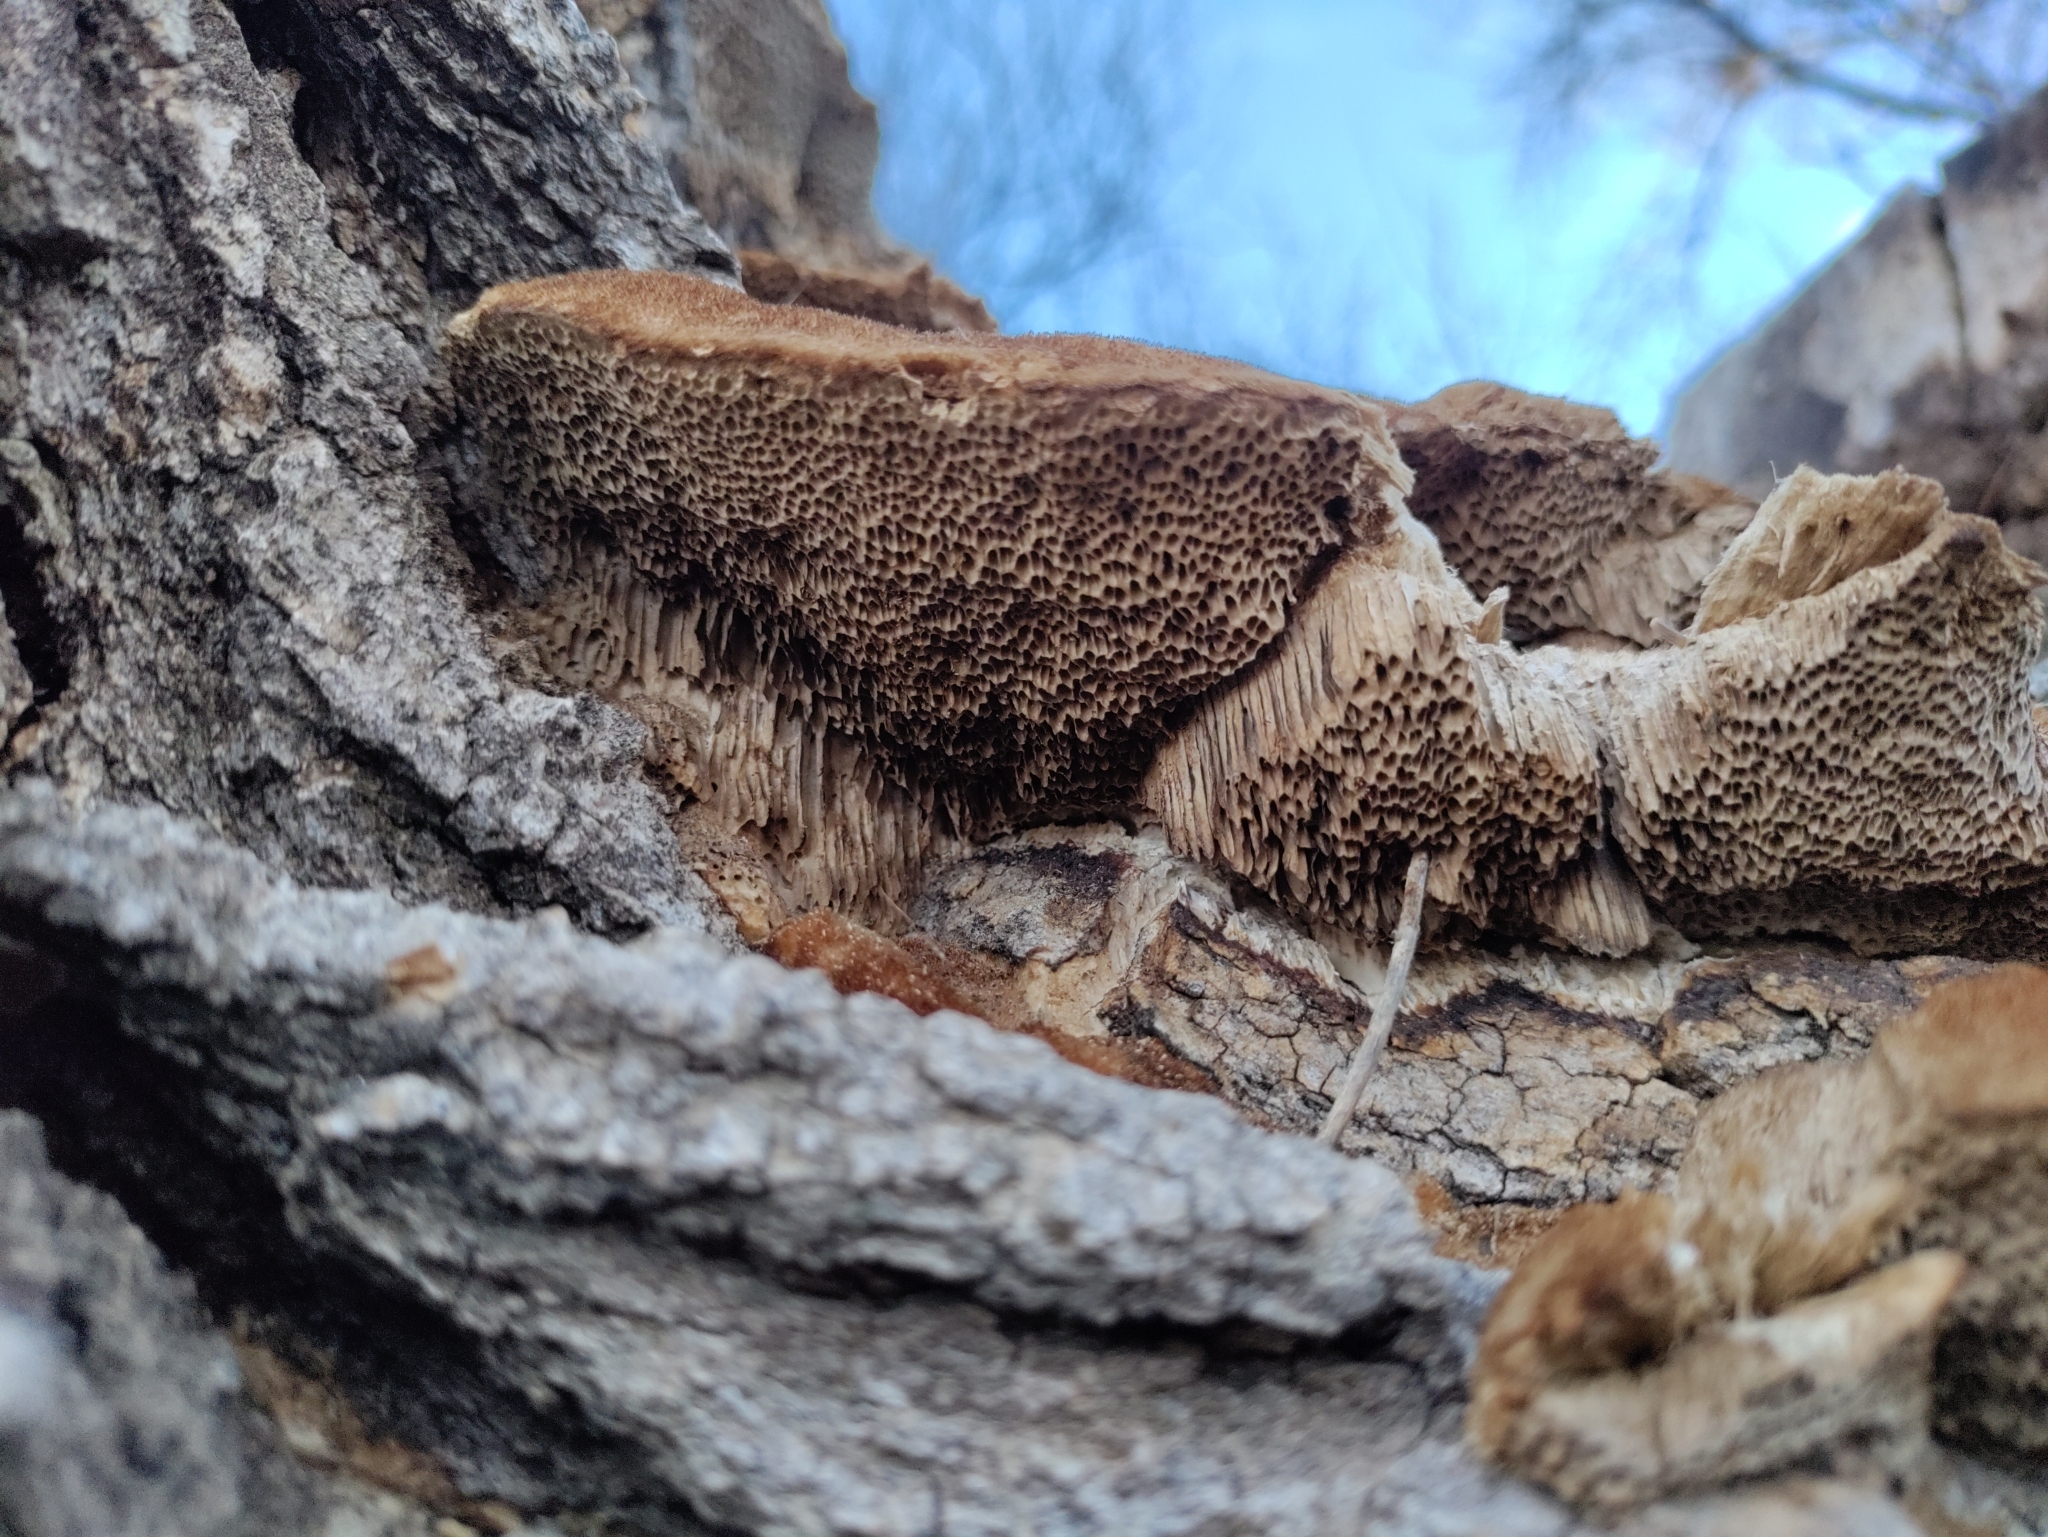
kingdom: Fungi
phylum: Basidiomycota
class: Agaricomycetes
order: Polyporales
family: Polyporaceae
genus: Coriolopsis
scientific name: Coriolopsis gallica
